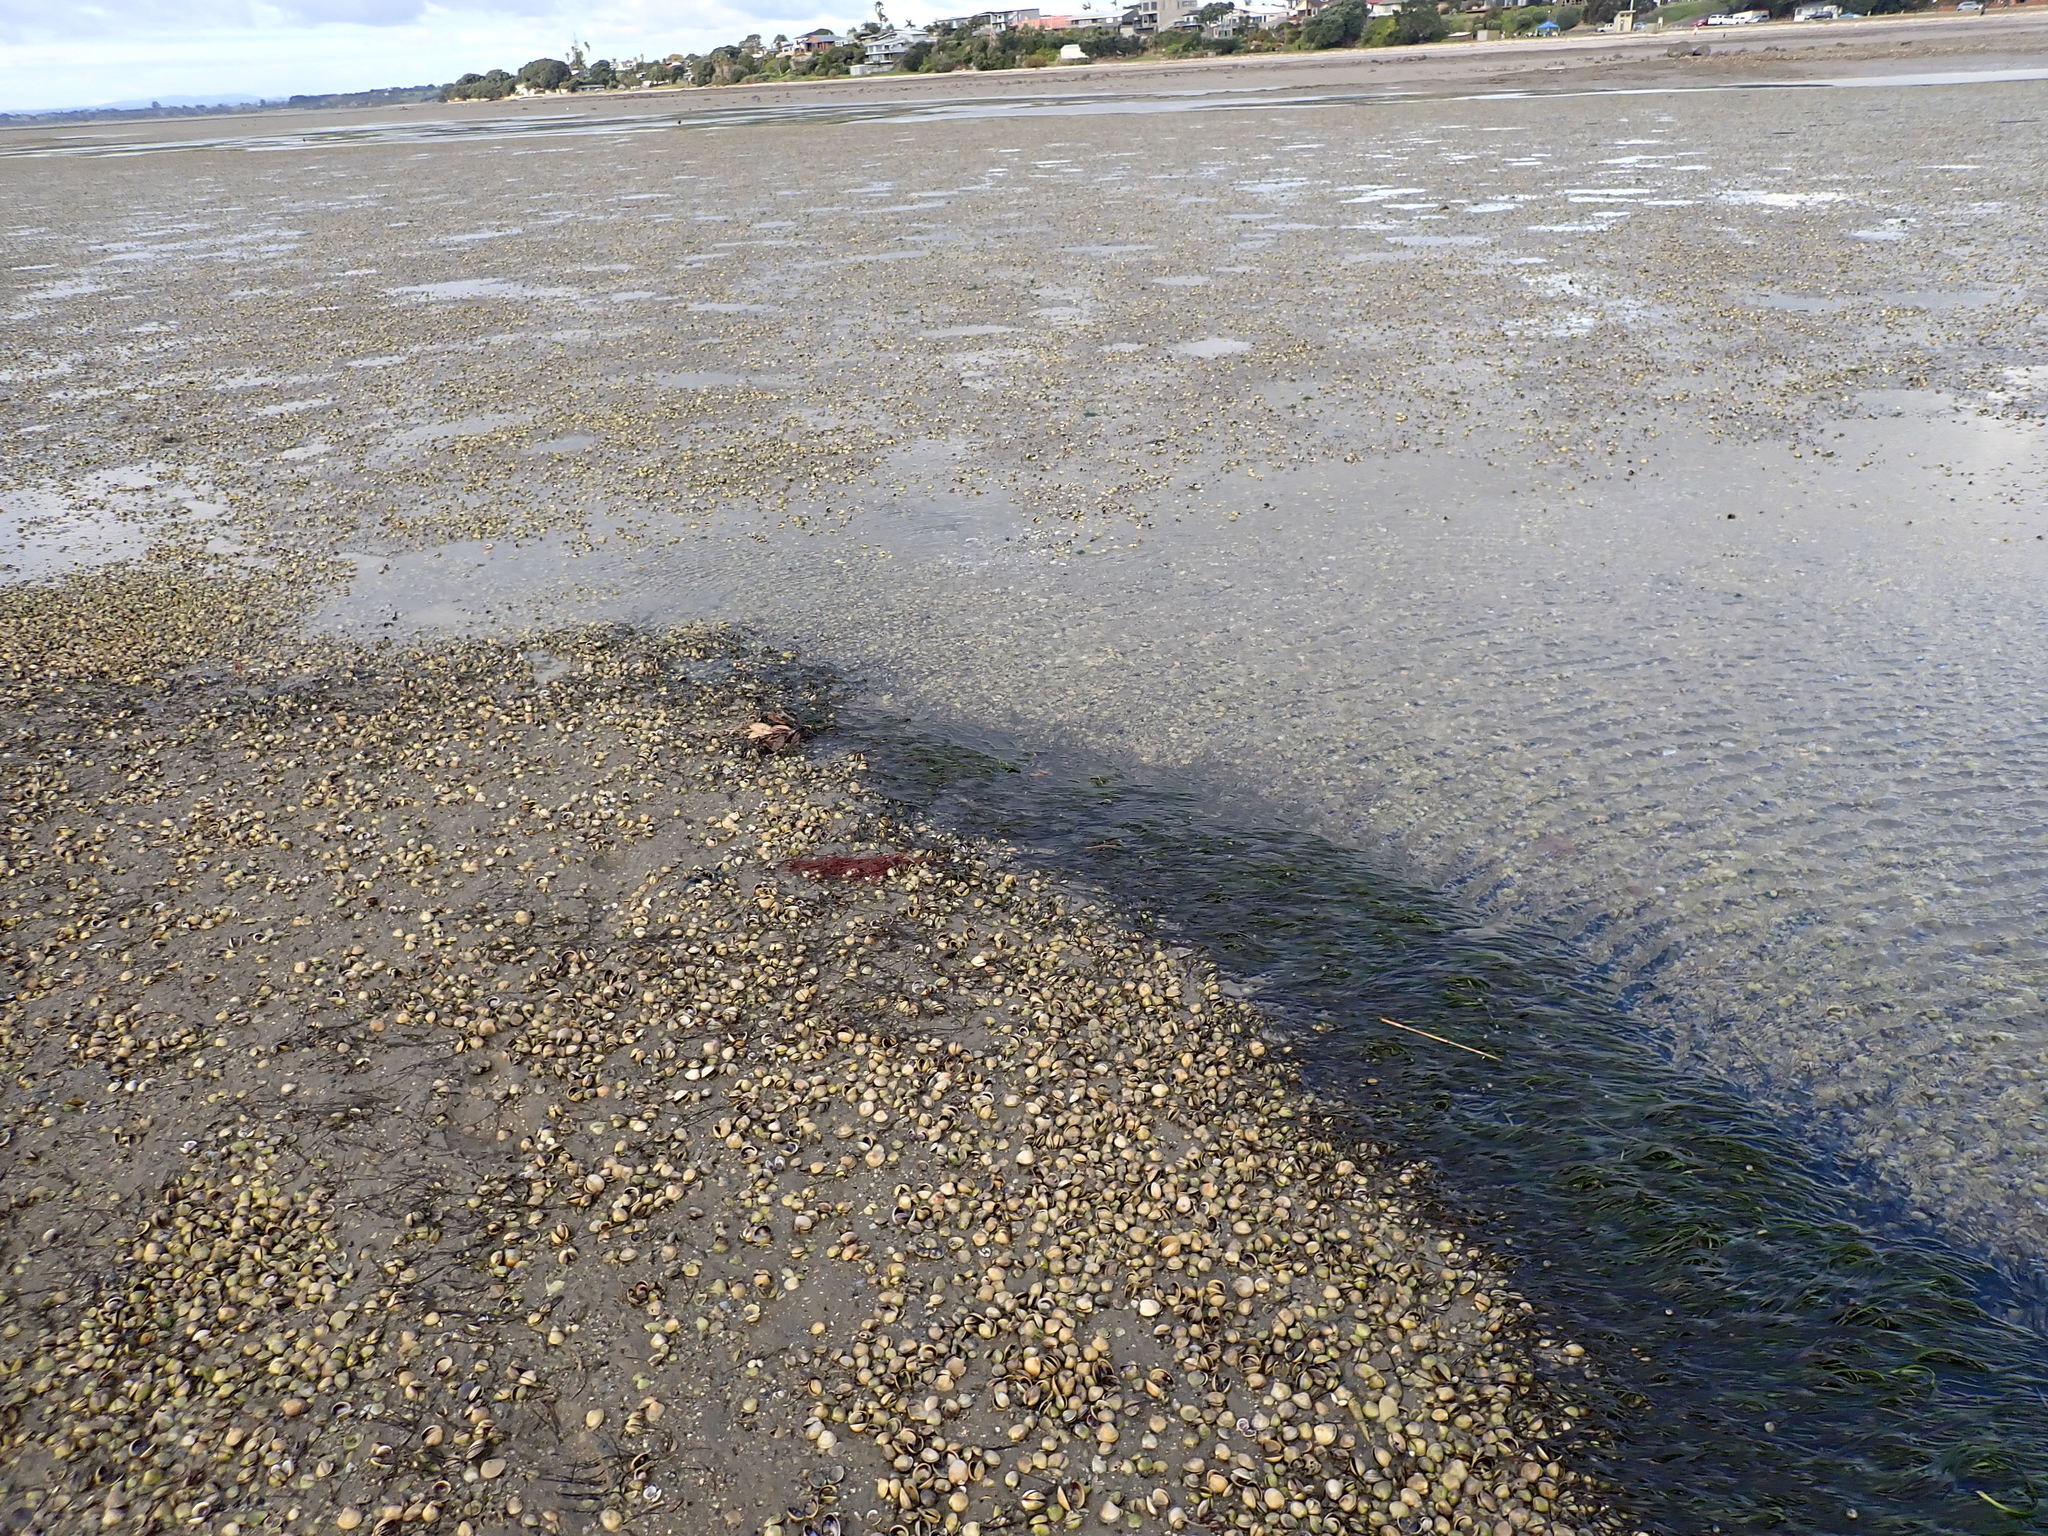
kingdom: Plantae
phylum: Tracheophyta
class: Liliopsida
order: Alismatales
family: Zosteraceae
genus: Zostera
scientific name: Zostera novazelandica
